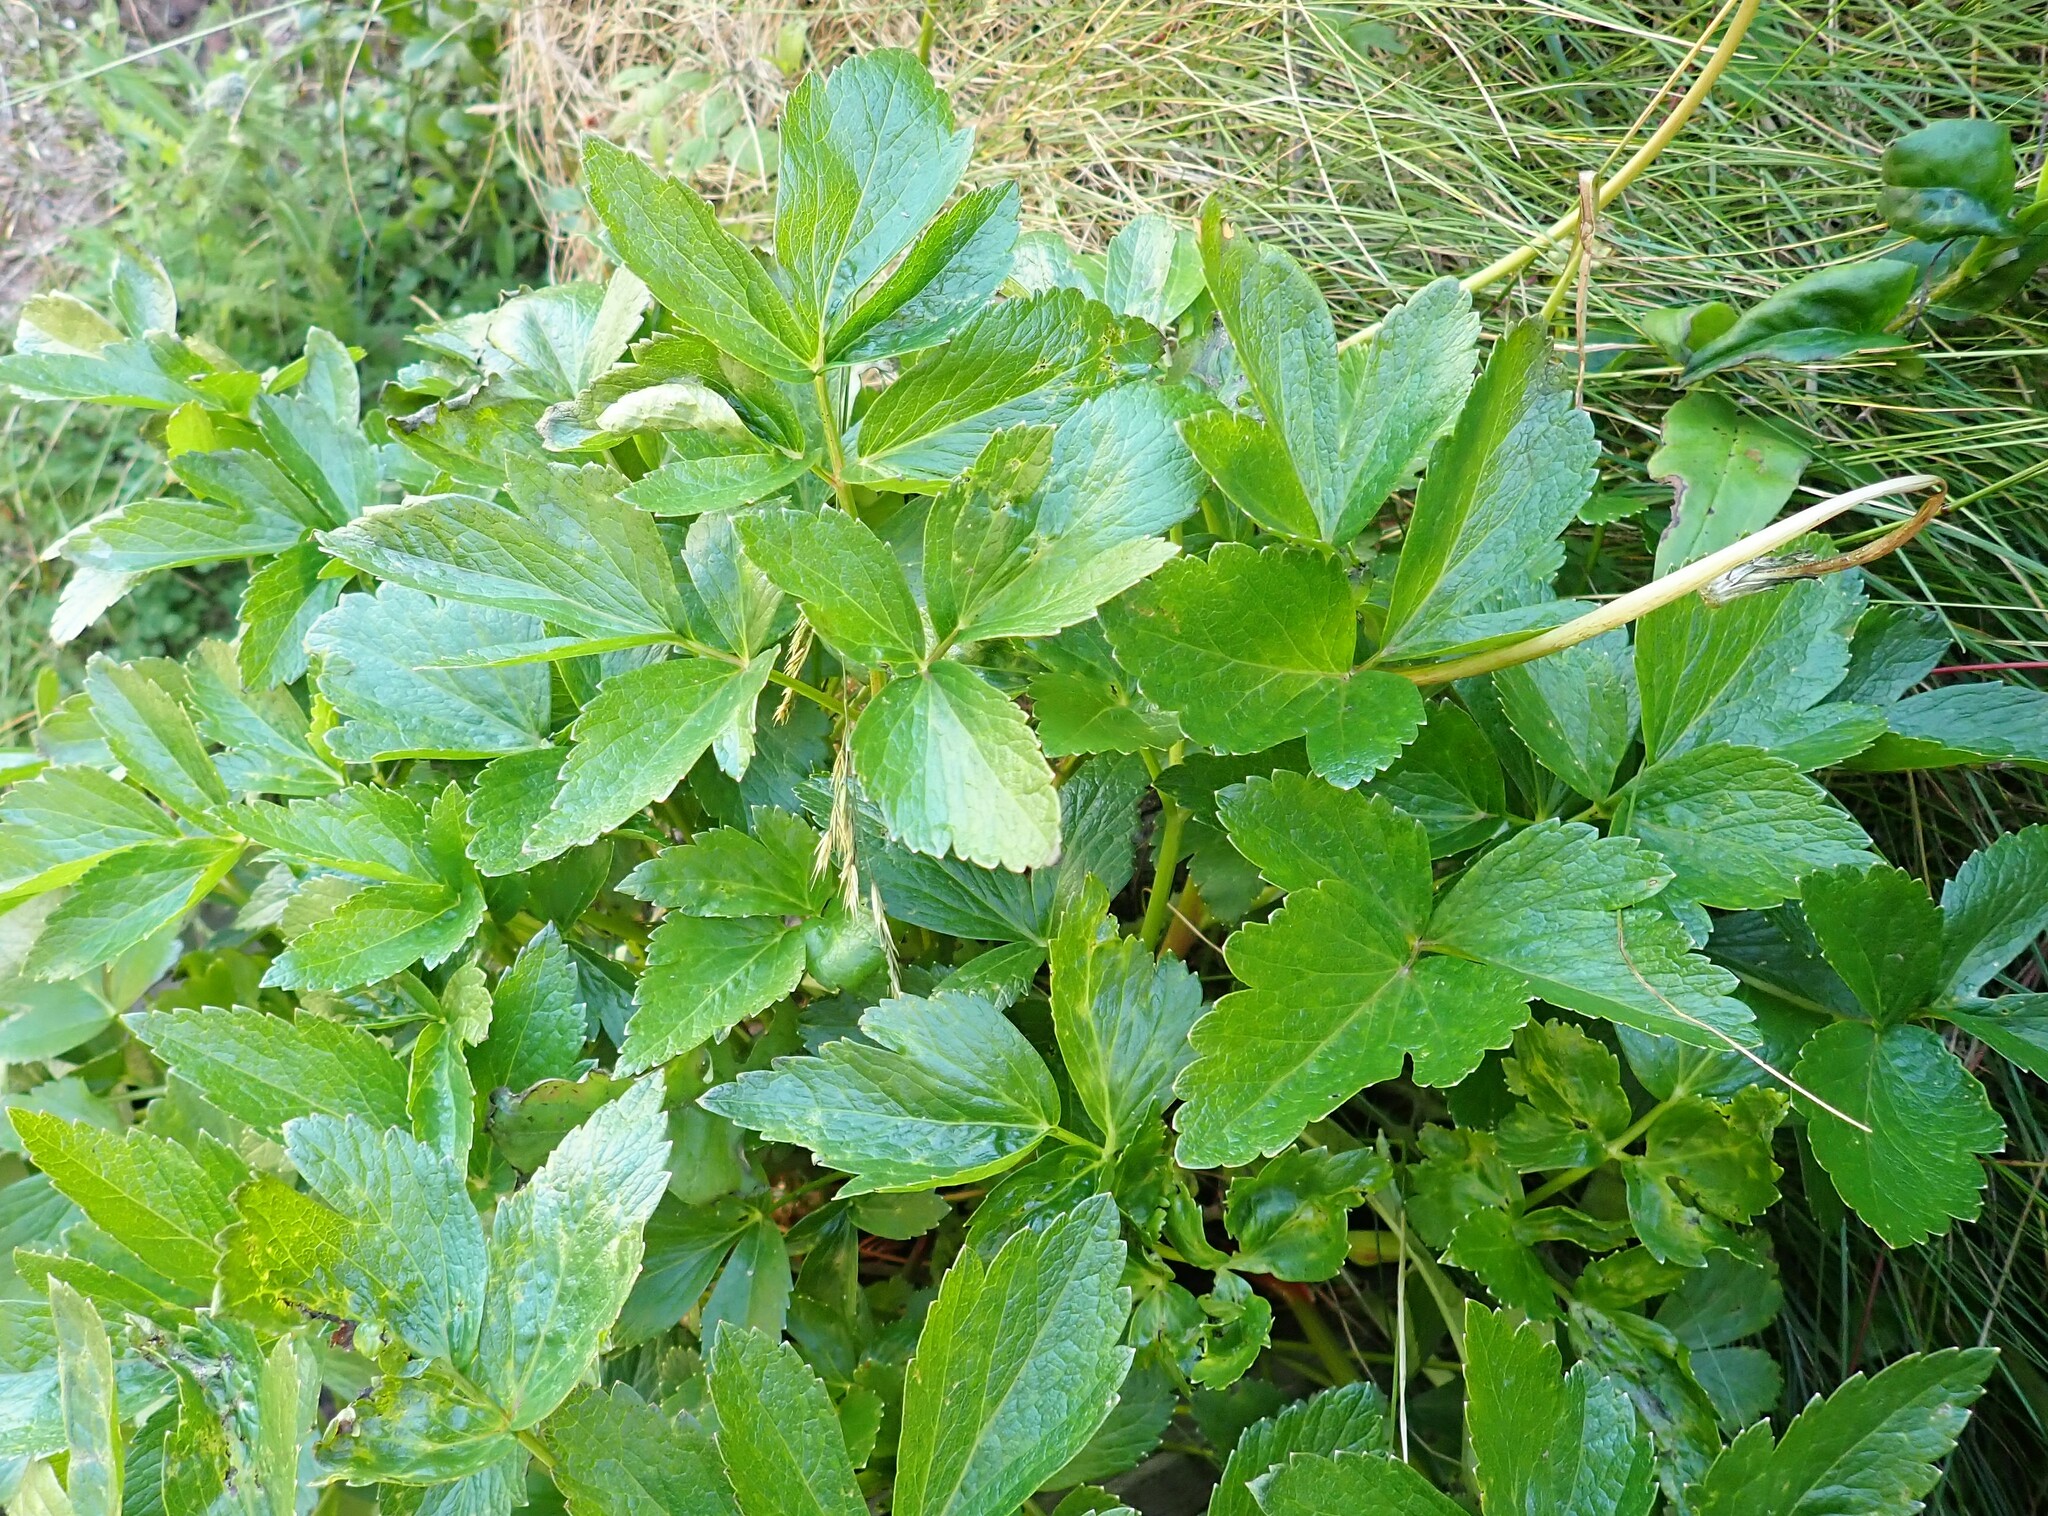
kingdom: Plantae
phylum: Tracheophyta
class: Magnoliopsida
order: Apiales
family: Apiaceae
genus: Ligusticum
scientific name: Ligusticum scothicum
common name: Beach lovage
